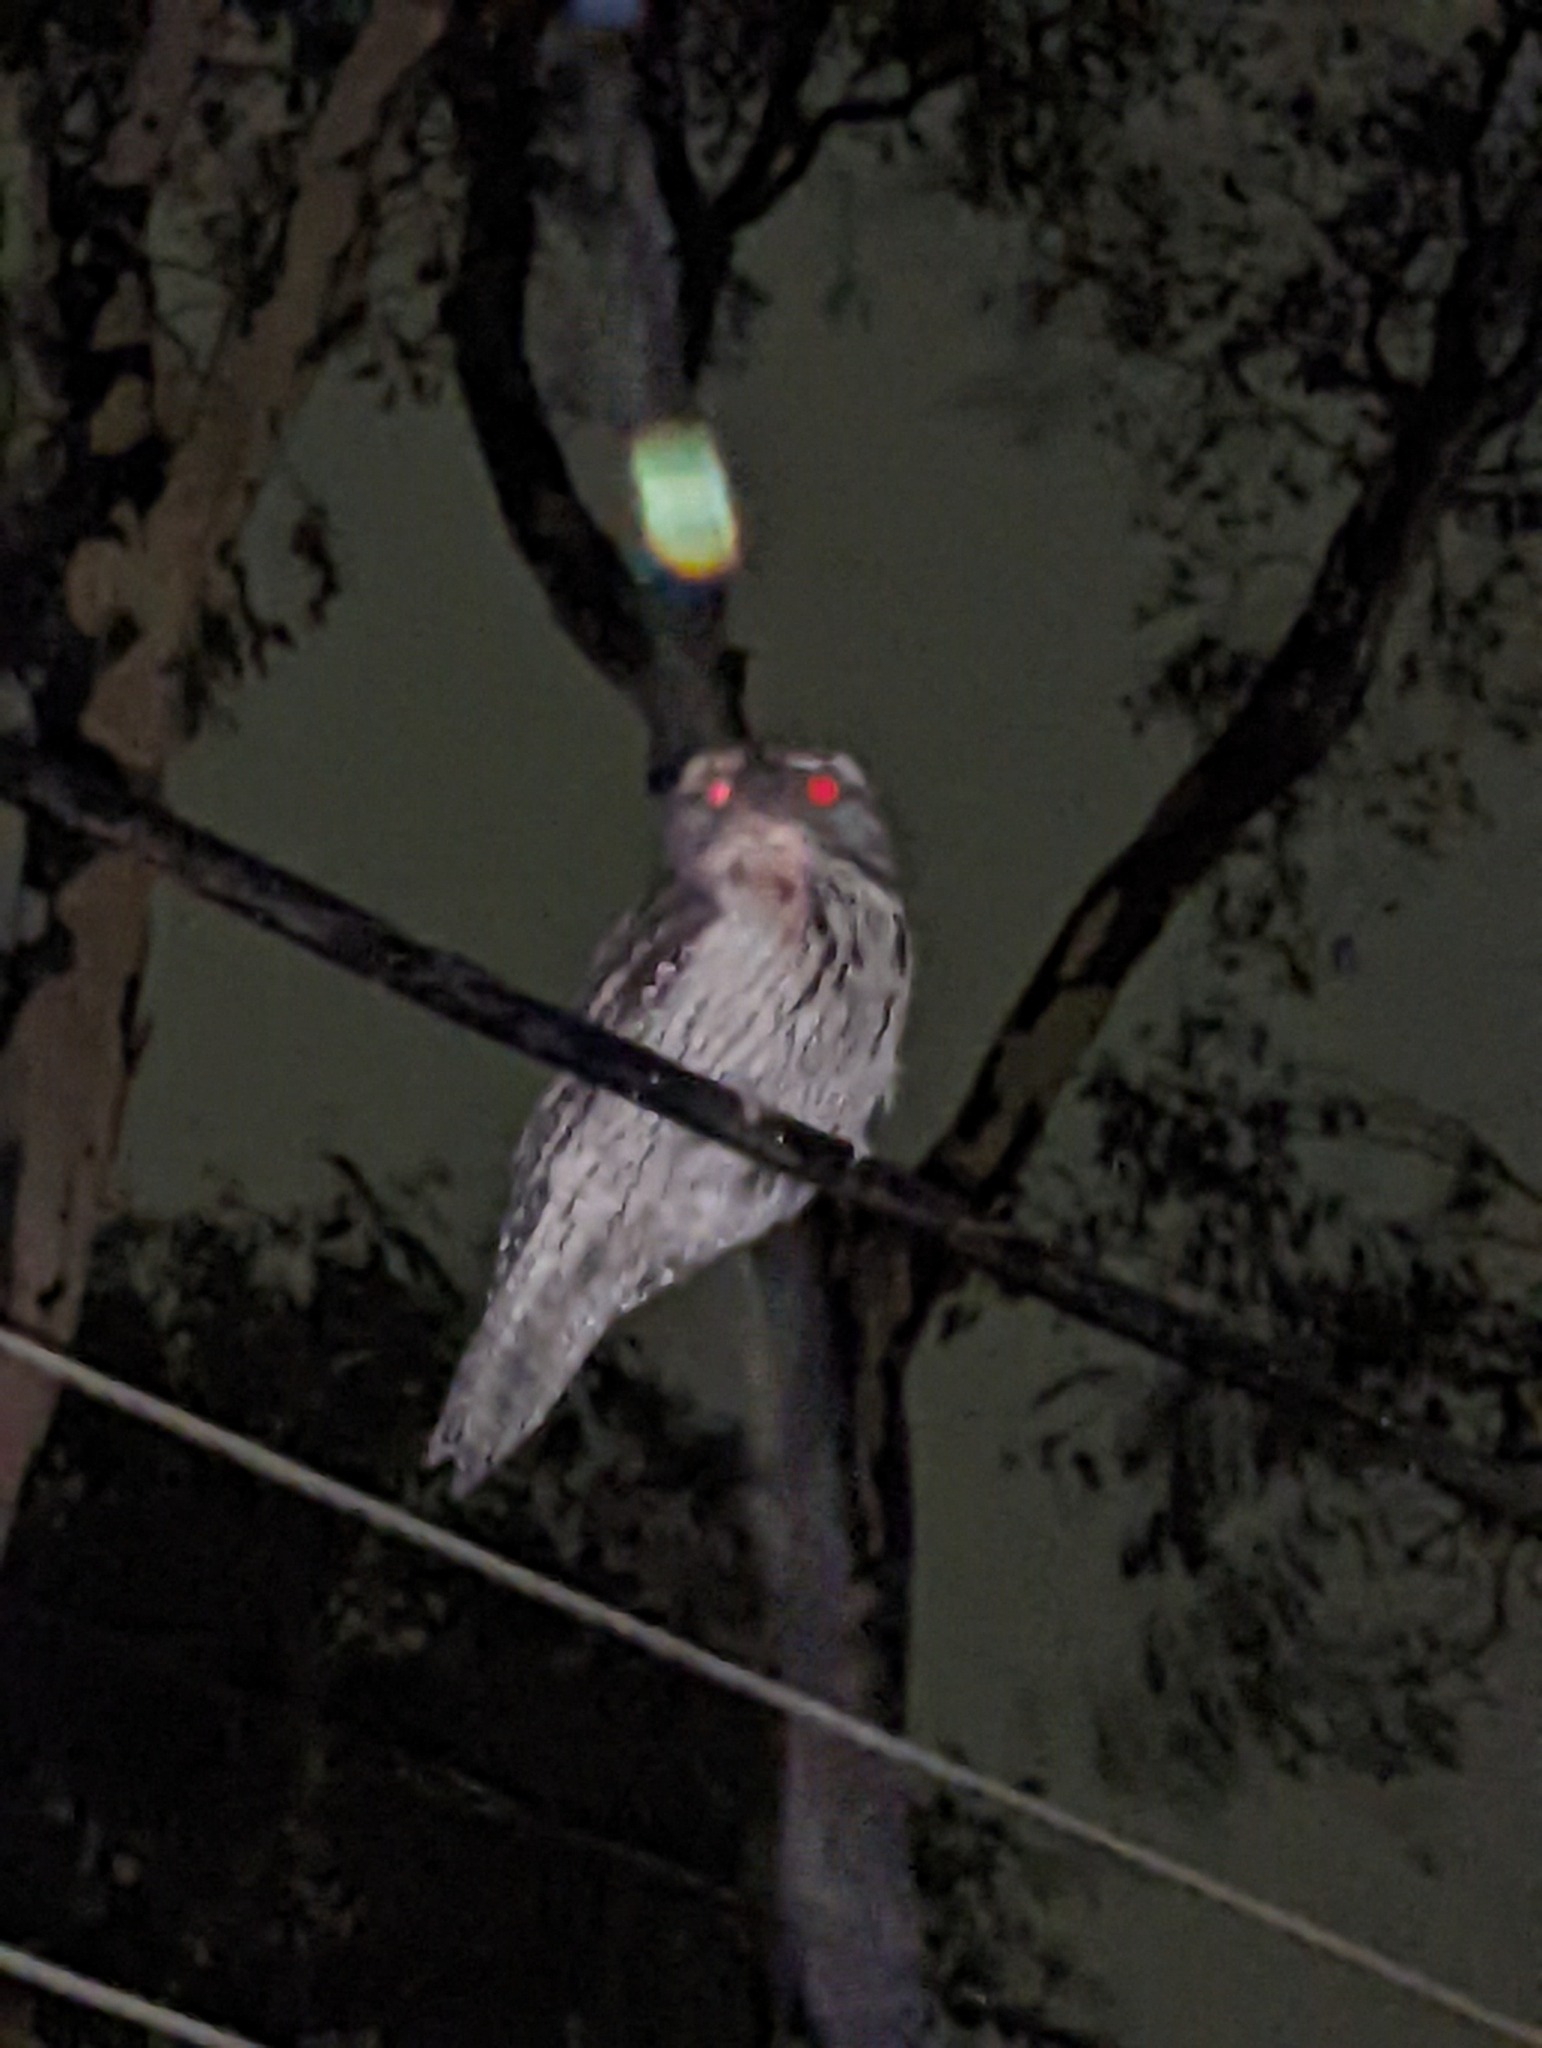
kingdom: Animalia
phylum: Chordata
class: Aves
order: Caprimulgiformes
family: Podargidae
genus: Podargus
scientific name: Podargus strigoides
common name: Tawny frogmouth
